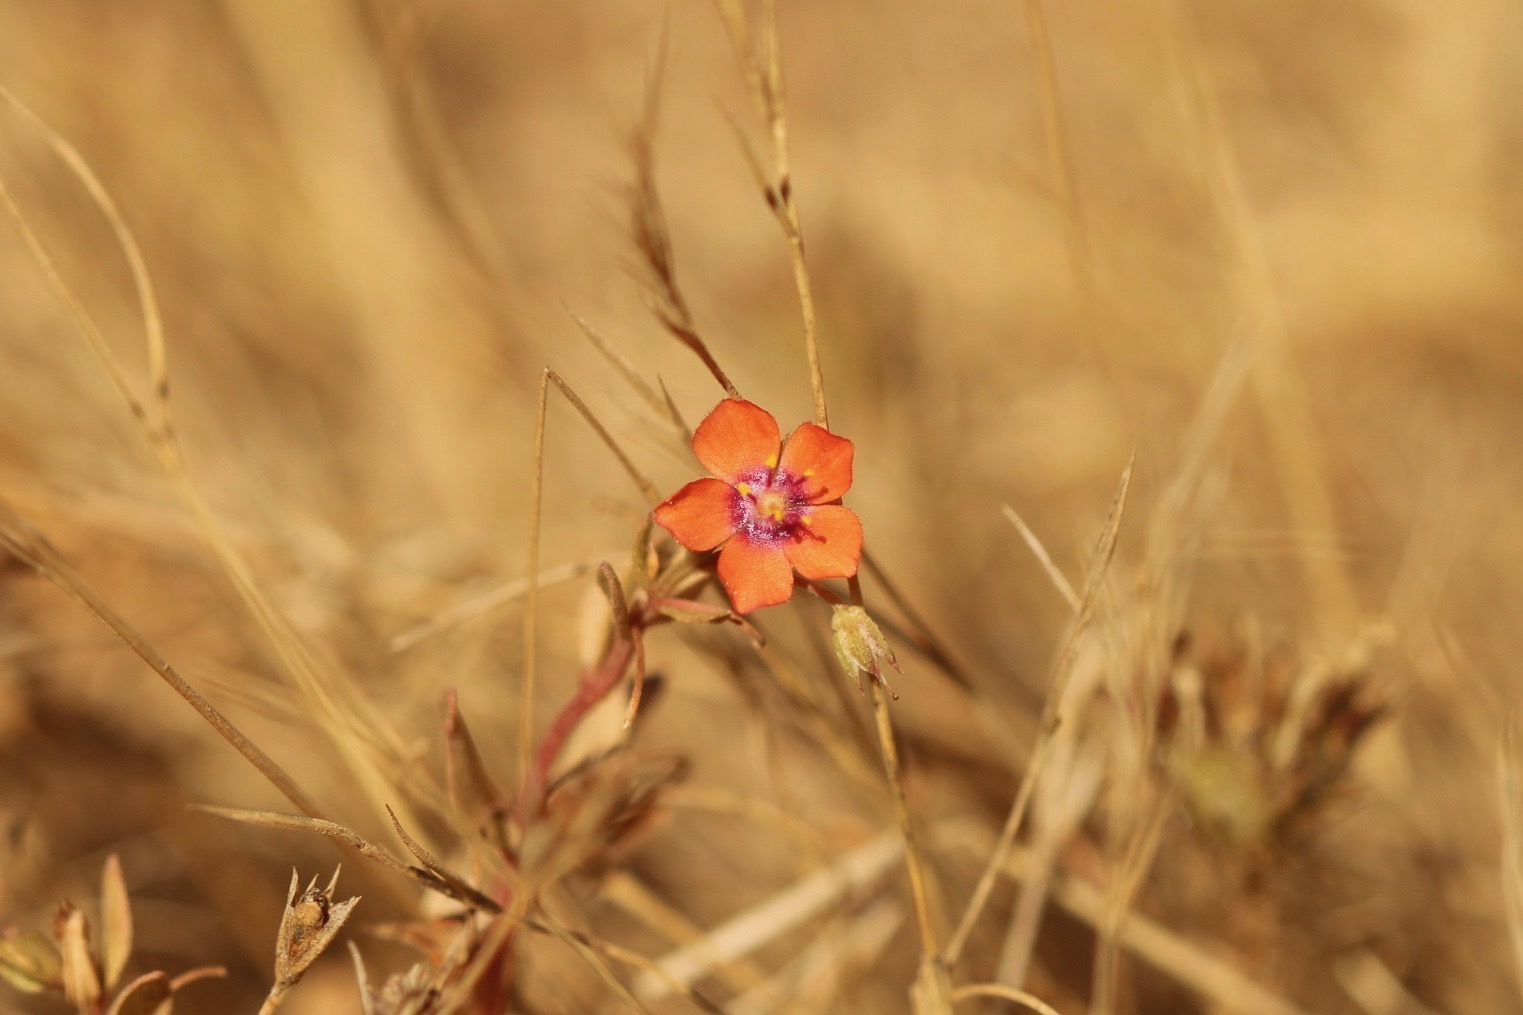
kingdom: Plantae
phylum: Tracheophyta
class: Magnoliopsida
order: Ericales
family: Primulaceae
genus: Lysimachia
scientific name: Lysimachia arvensis
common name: Scarlet pimpernel
